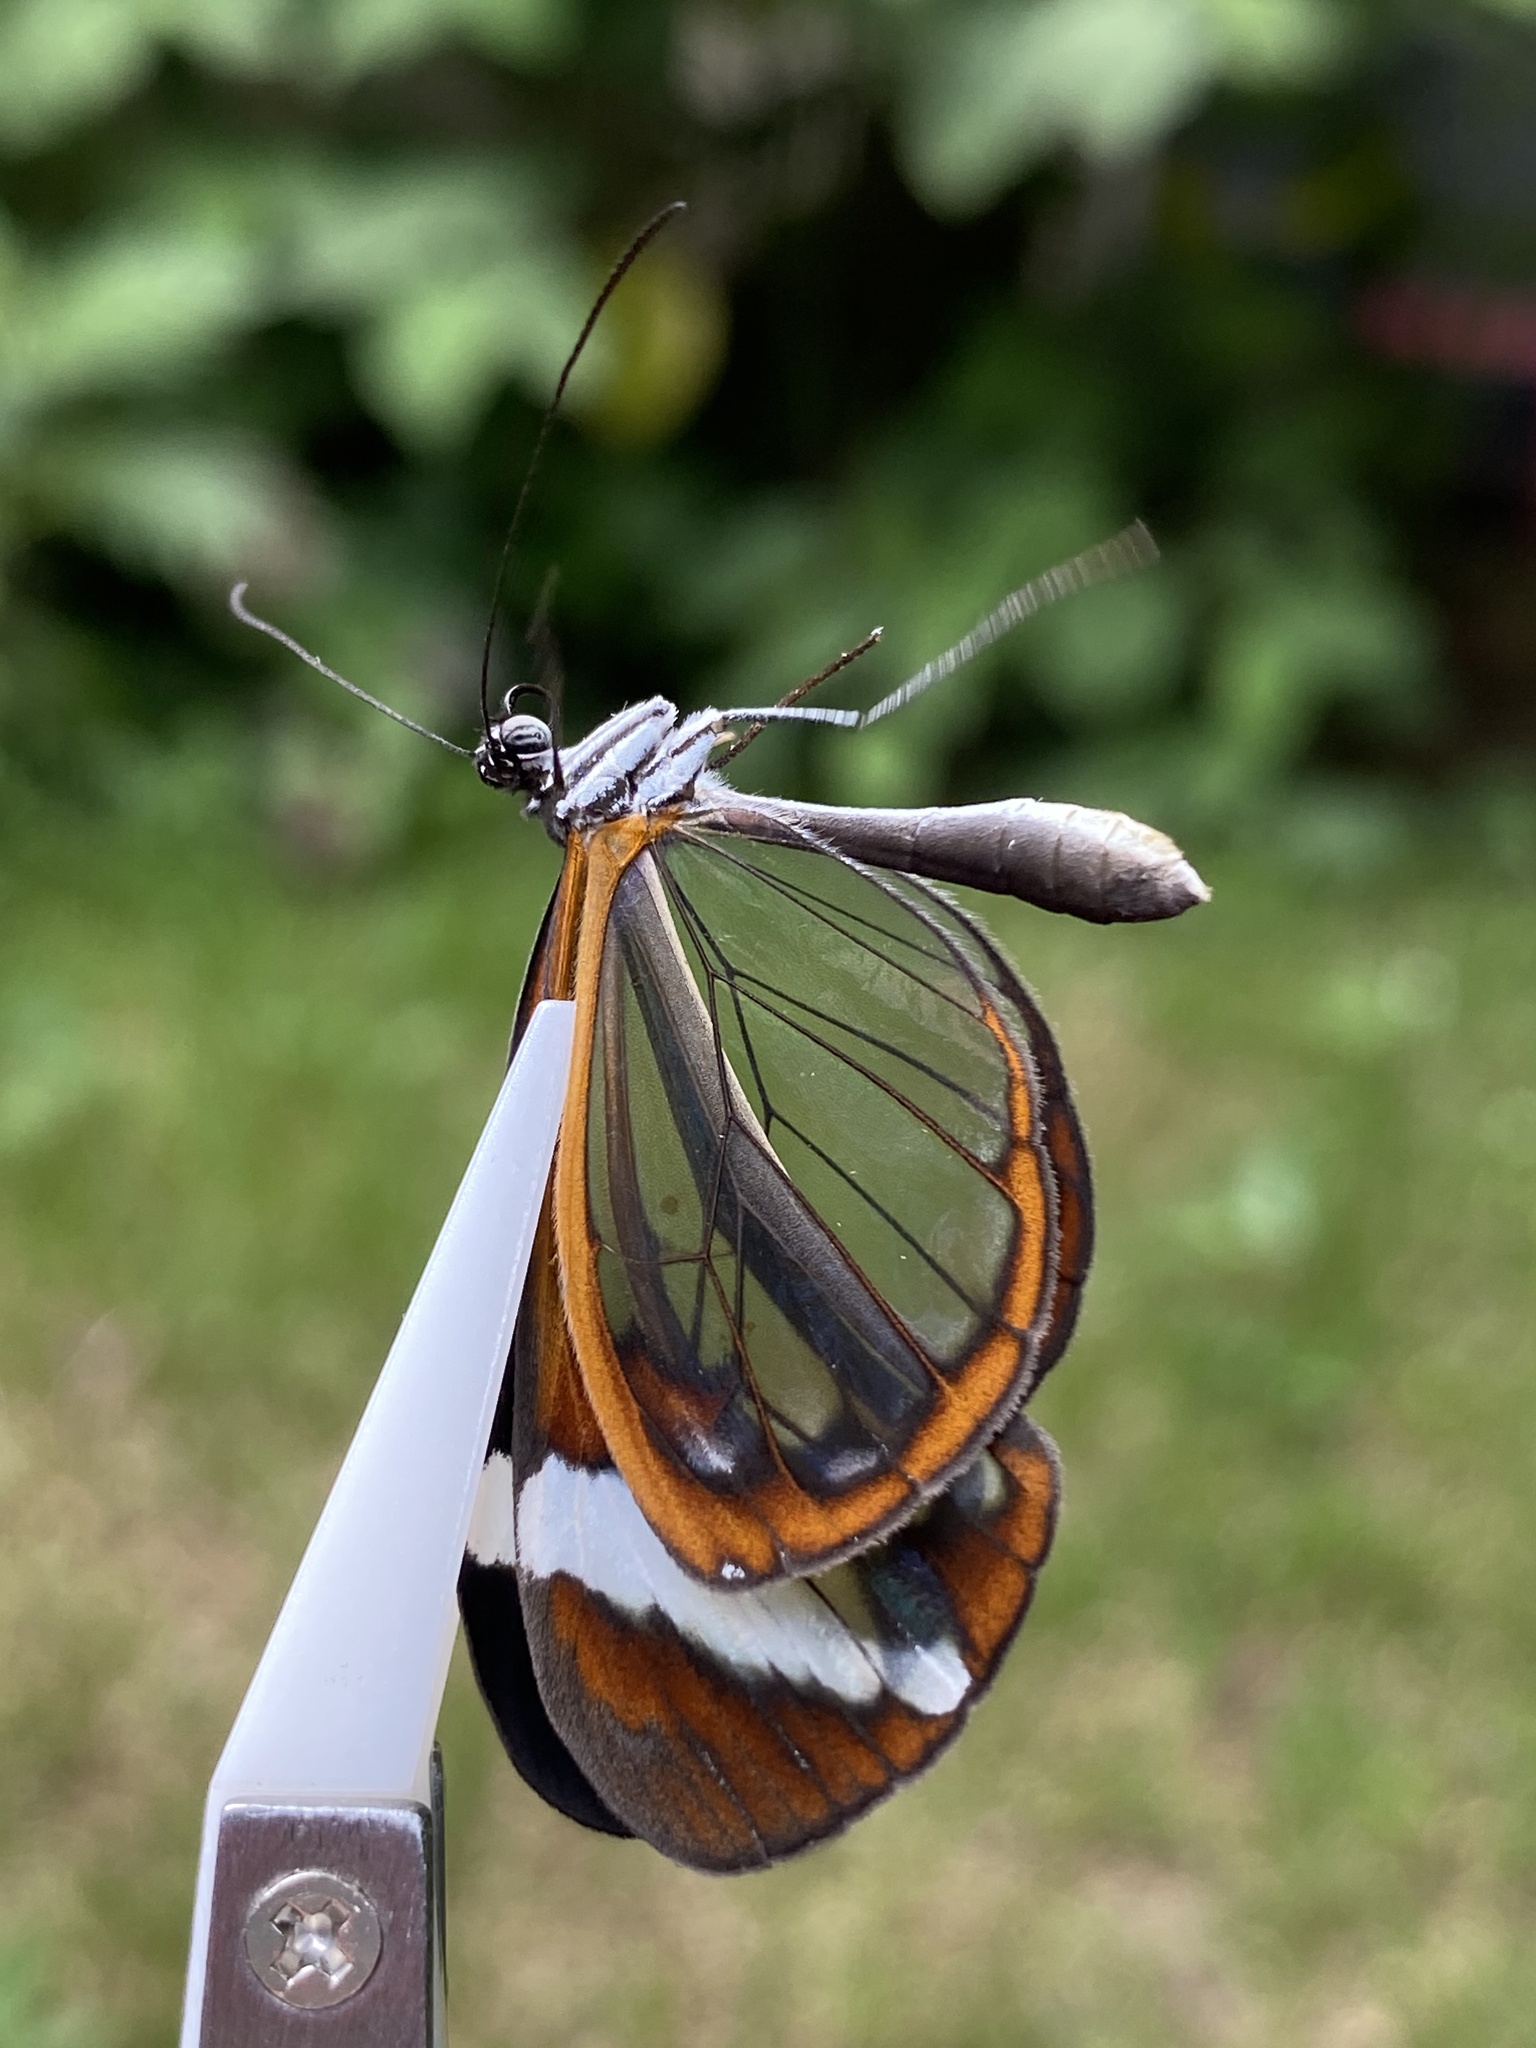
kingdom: Animalia
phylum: Arthropoda
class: Insecta
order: Lepidoptera
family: Nymphalidae
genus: Greta
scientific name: Greta morgane
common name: Thick-tipped greta
